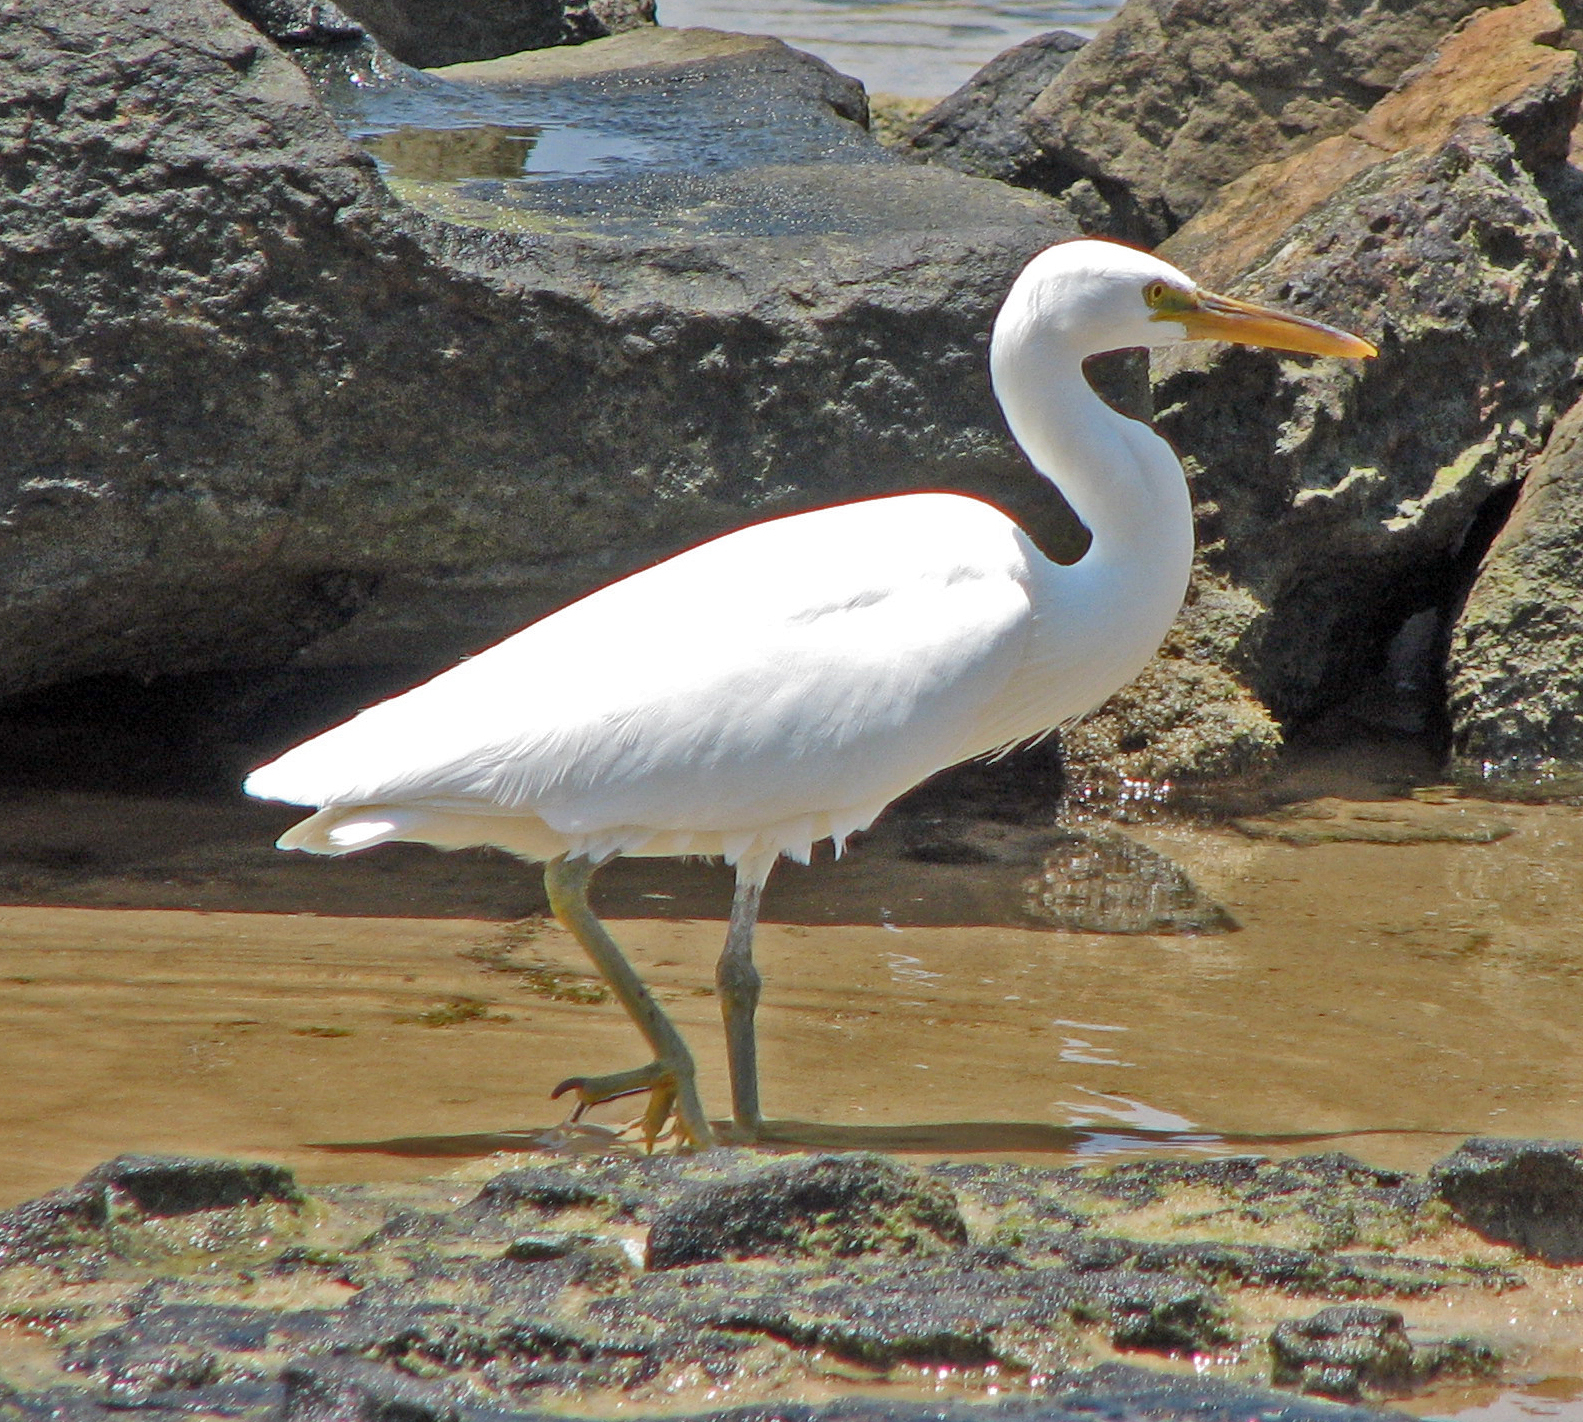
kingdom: Animalia
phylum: Chordata
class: Aves
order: Pelecaniformes
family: Ardeidae
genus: Egretta
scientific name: Egretta sacra
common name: Pacific reef heron
